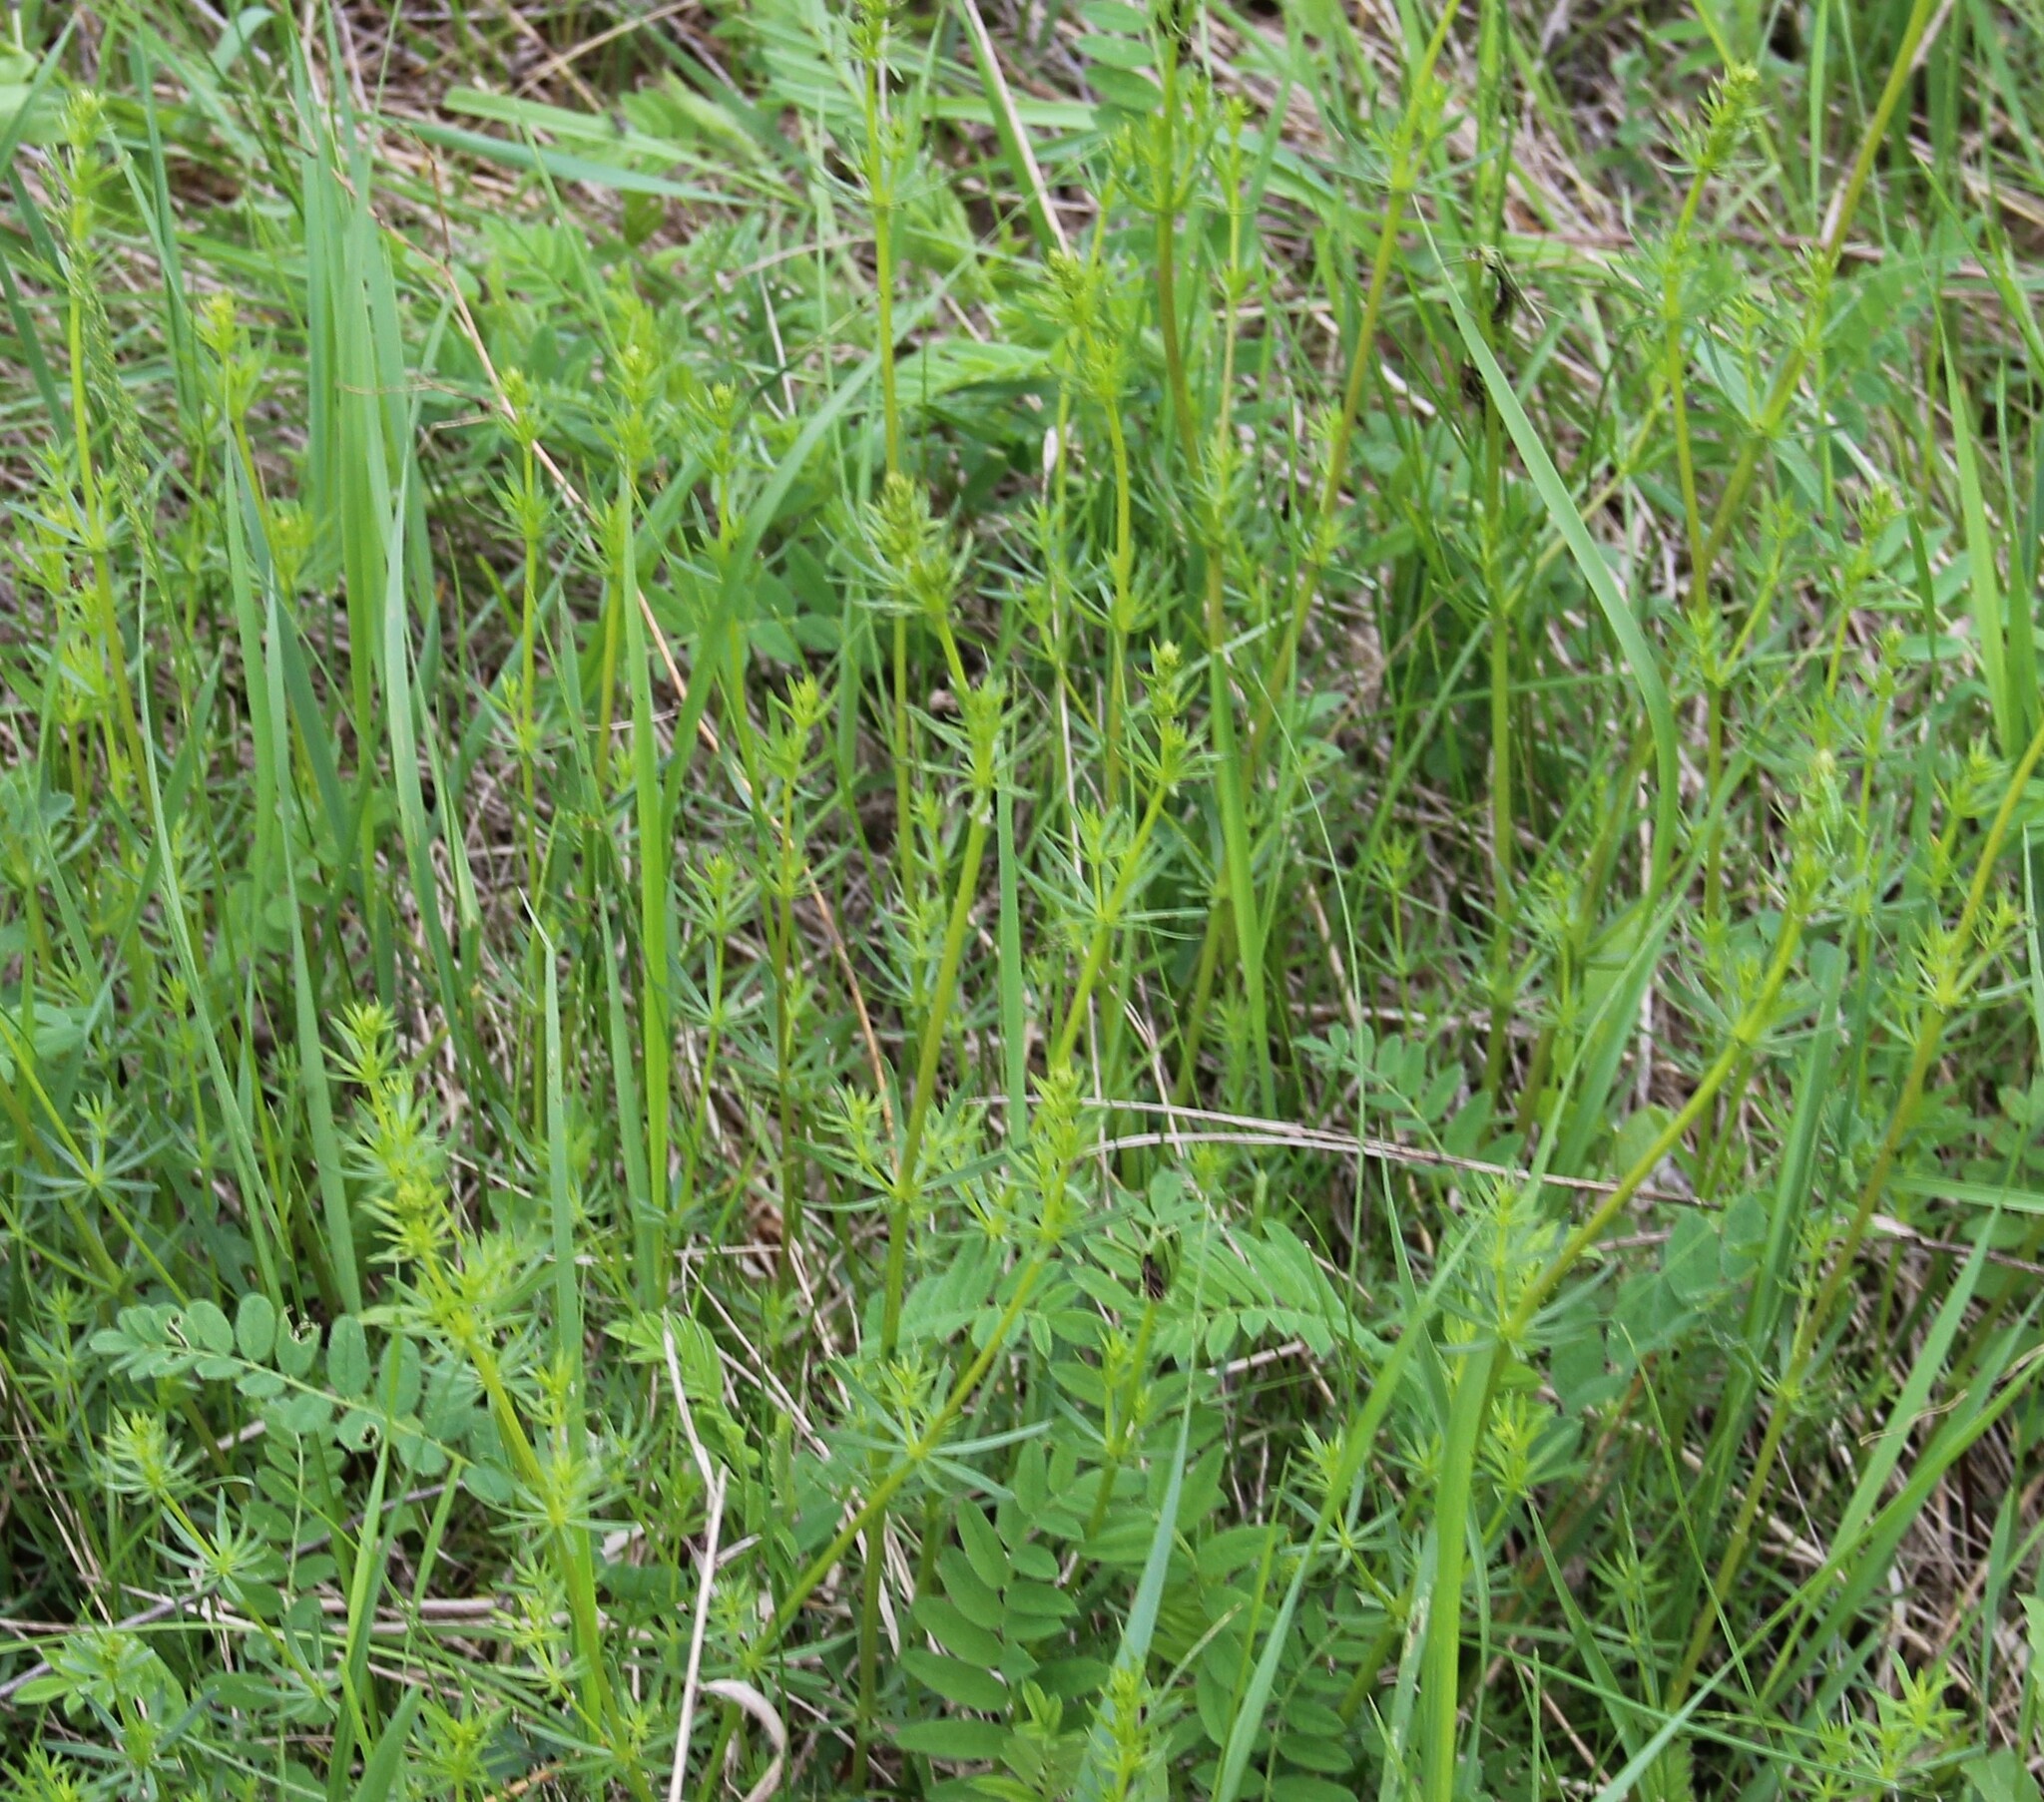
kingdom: Plantae
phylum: Tracheophyta
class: Magnoliopsida
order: Gentianales
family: Rubiaceae
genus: Galium
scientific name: Galium mollugo
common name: Hedge bedstraw
